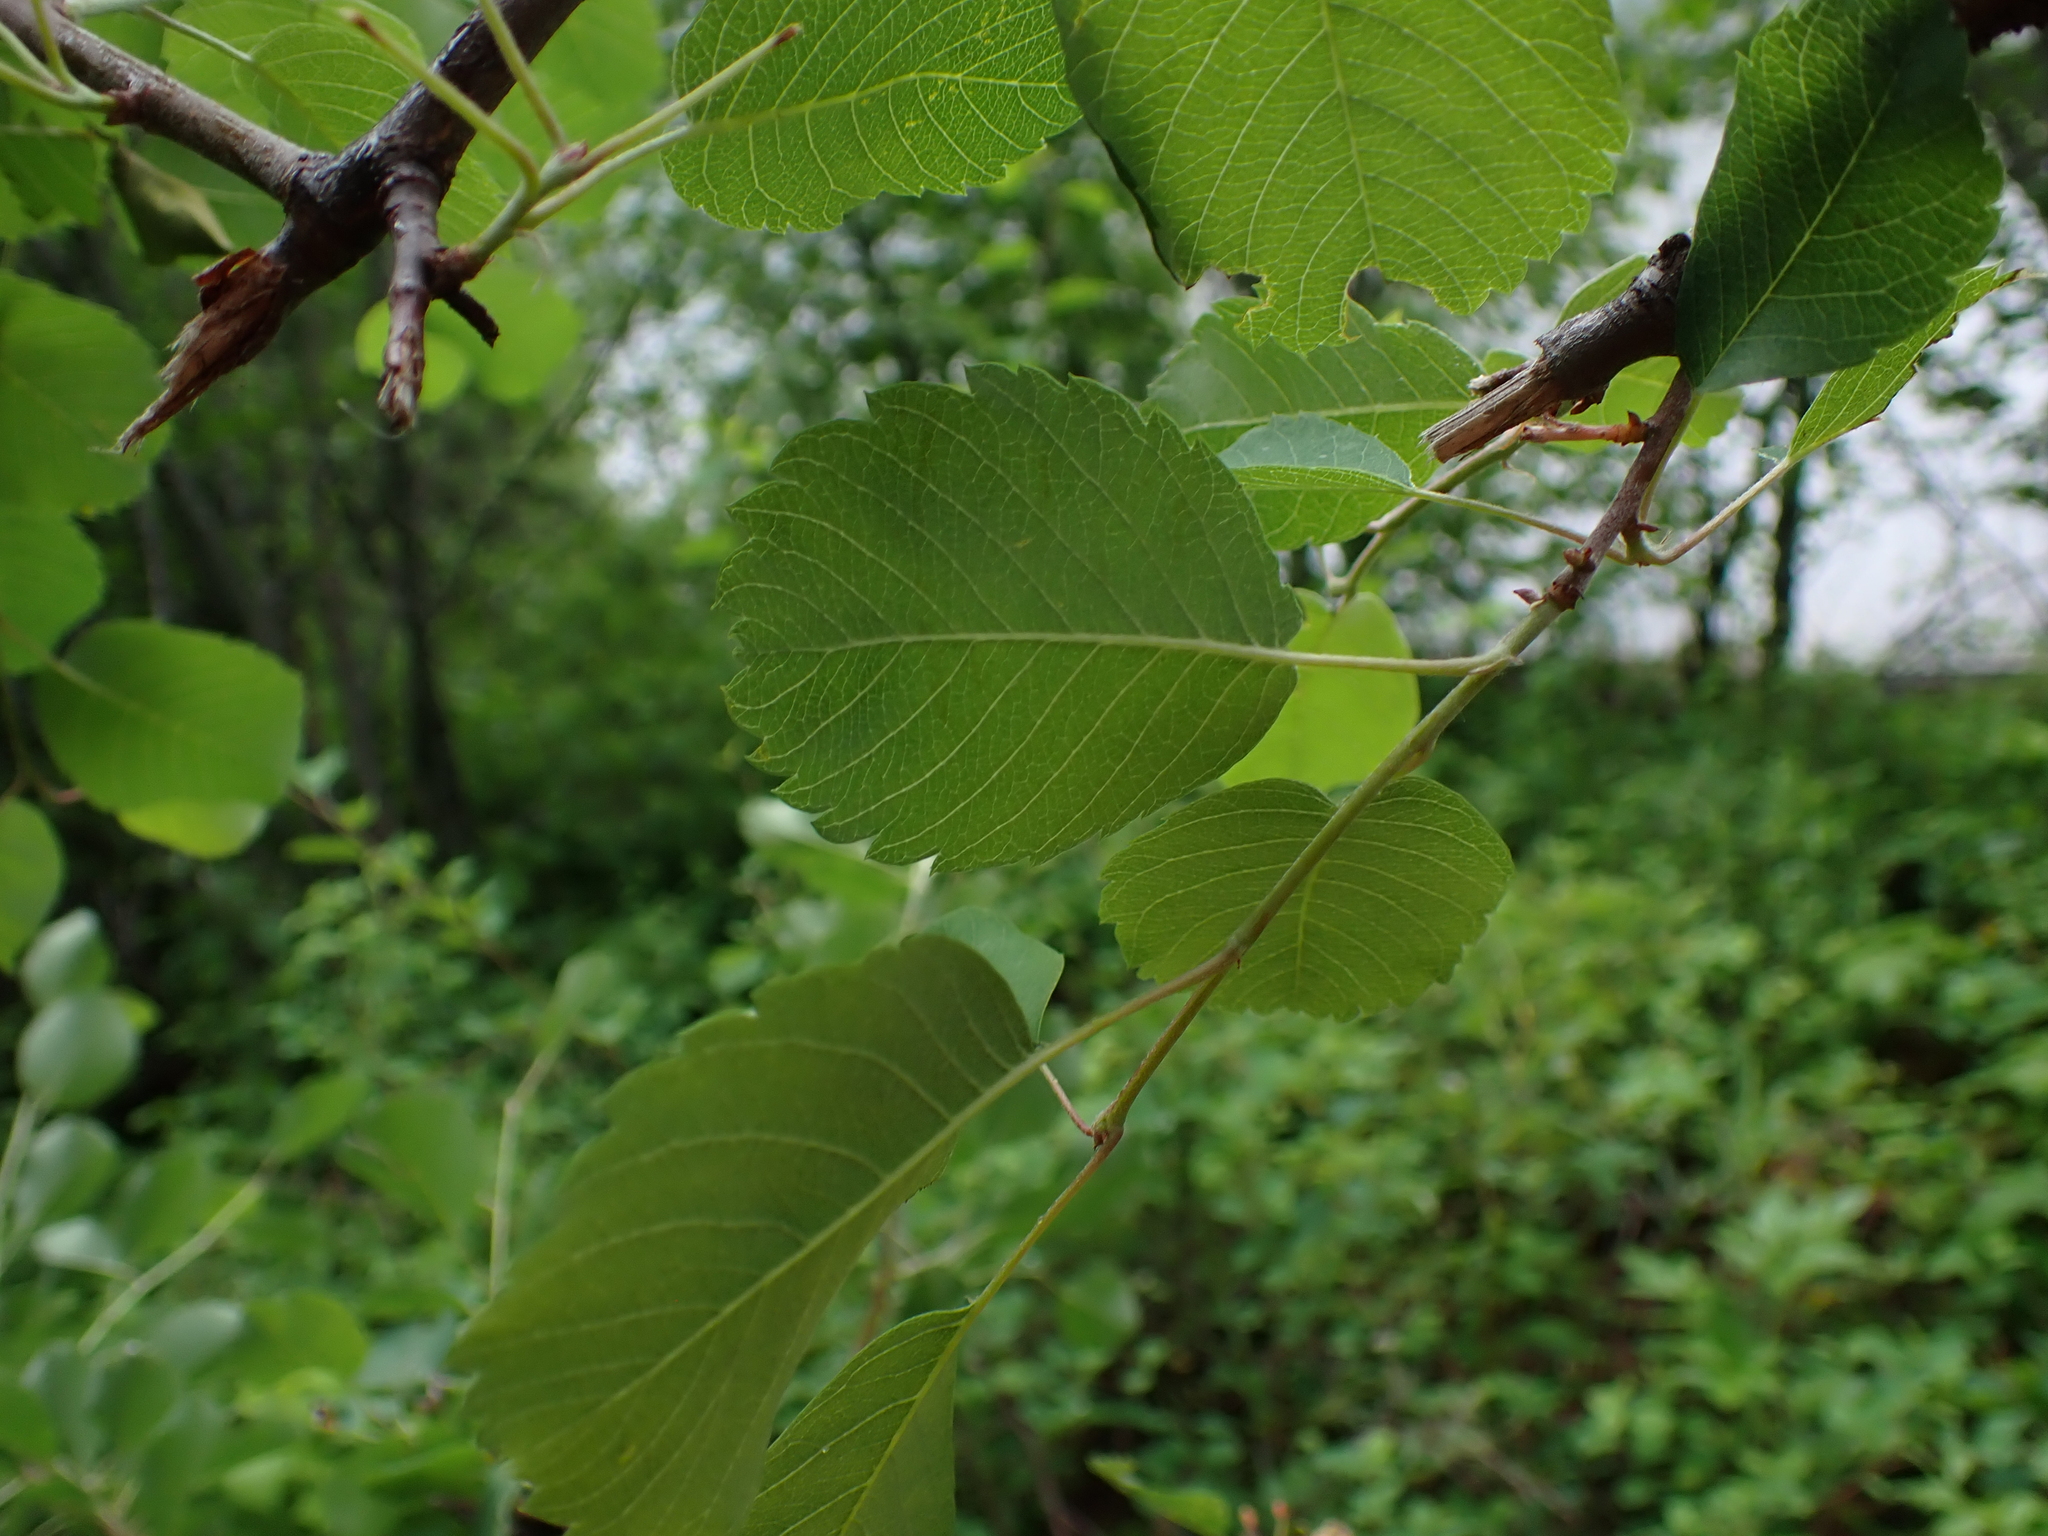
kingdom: Plantae
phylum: Tracheophyta
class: Magnoliopsida
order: Rosales
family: Rosaceae
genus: Amelanchier
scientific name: Amelanchier alnifolia
